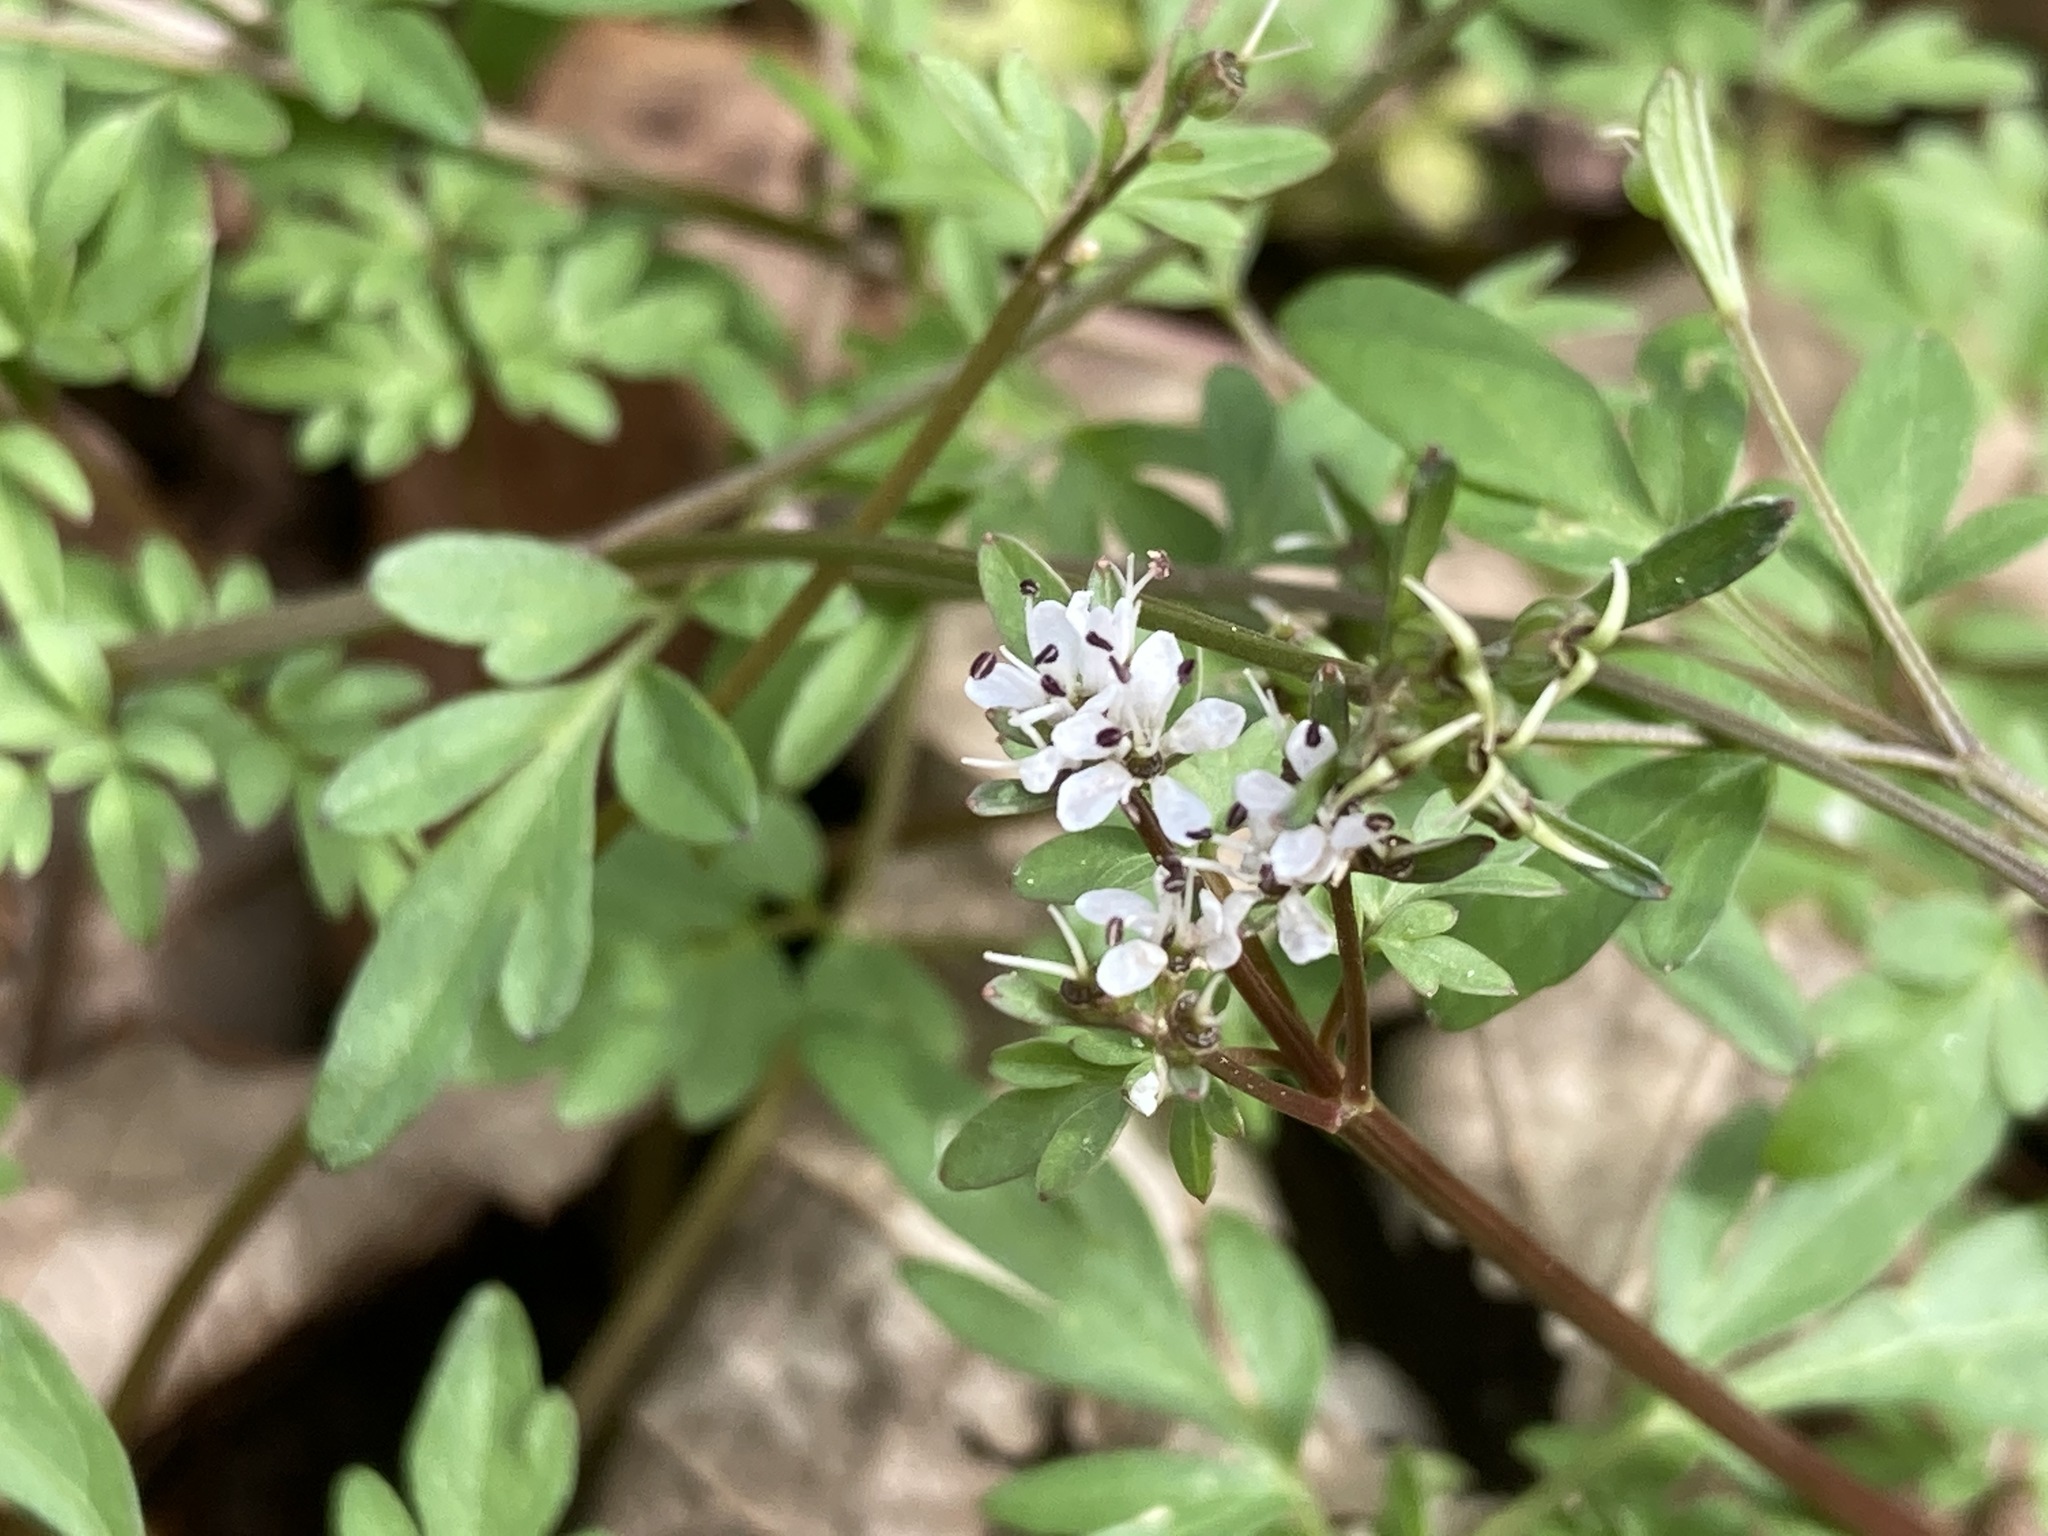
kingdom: Plantae
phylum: Tracheophyta
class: Magnoliopsida
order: Apiales
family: Apiaceae
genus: Erigenia
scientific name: Erigenia bulbosa
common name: Pepper-and-salt
